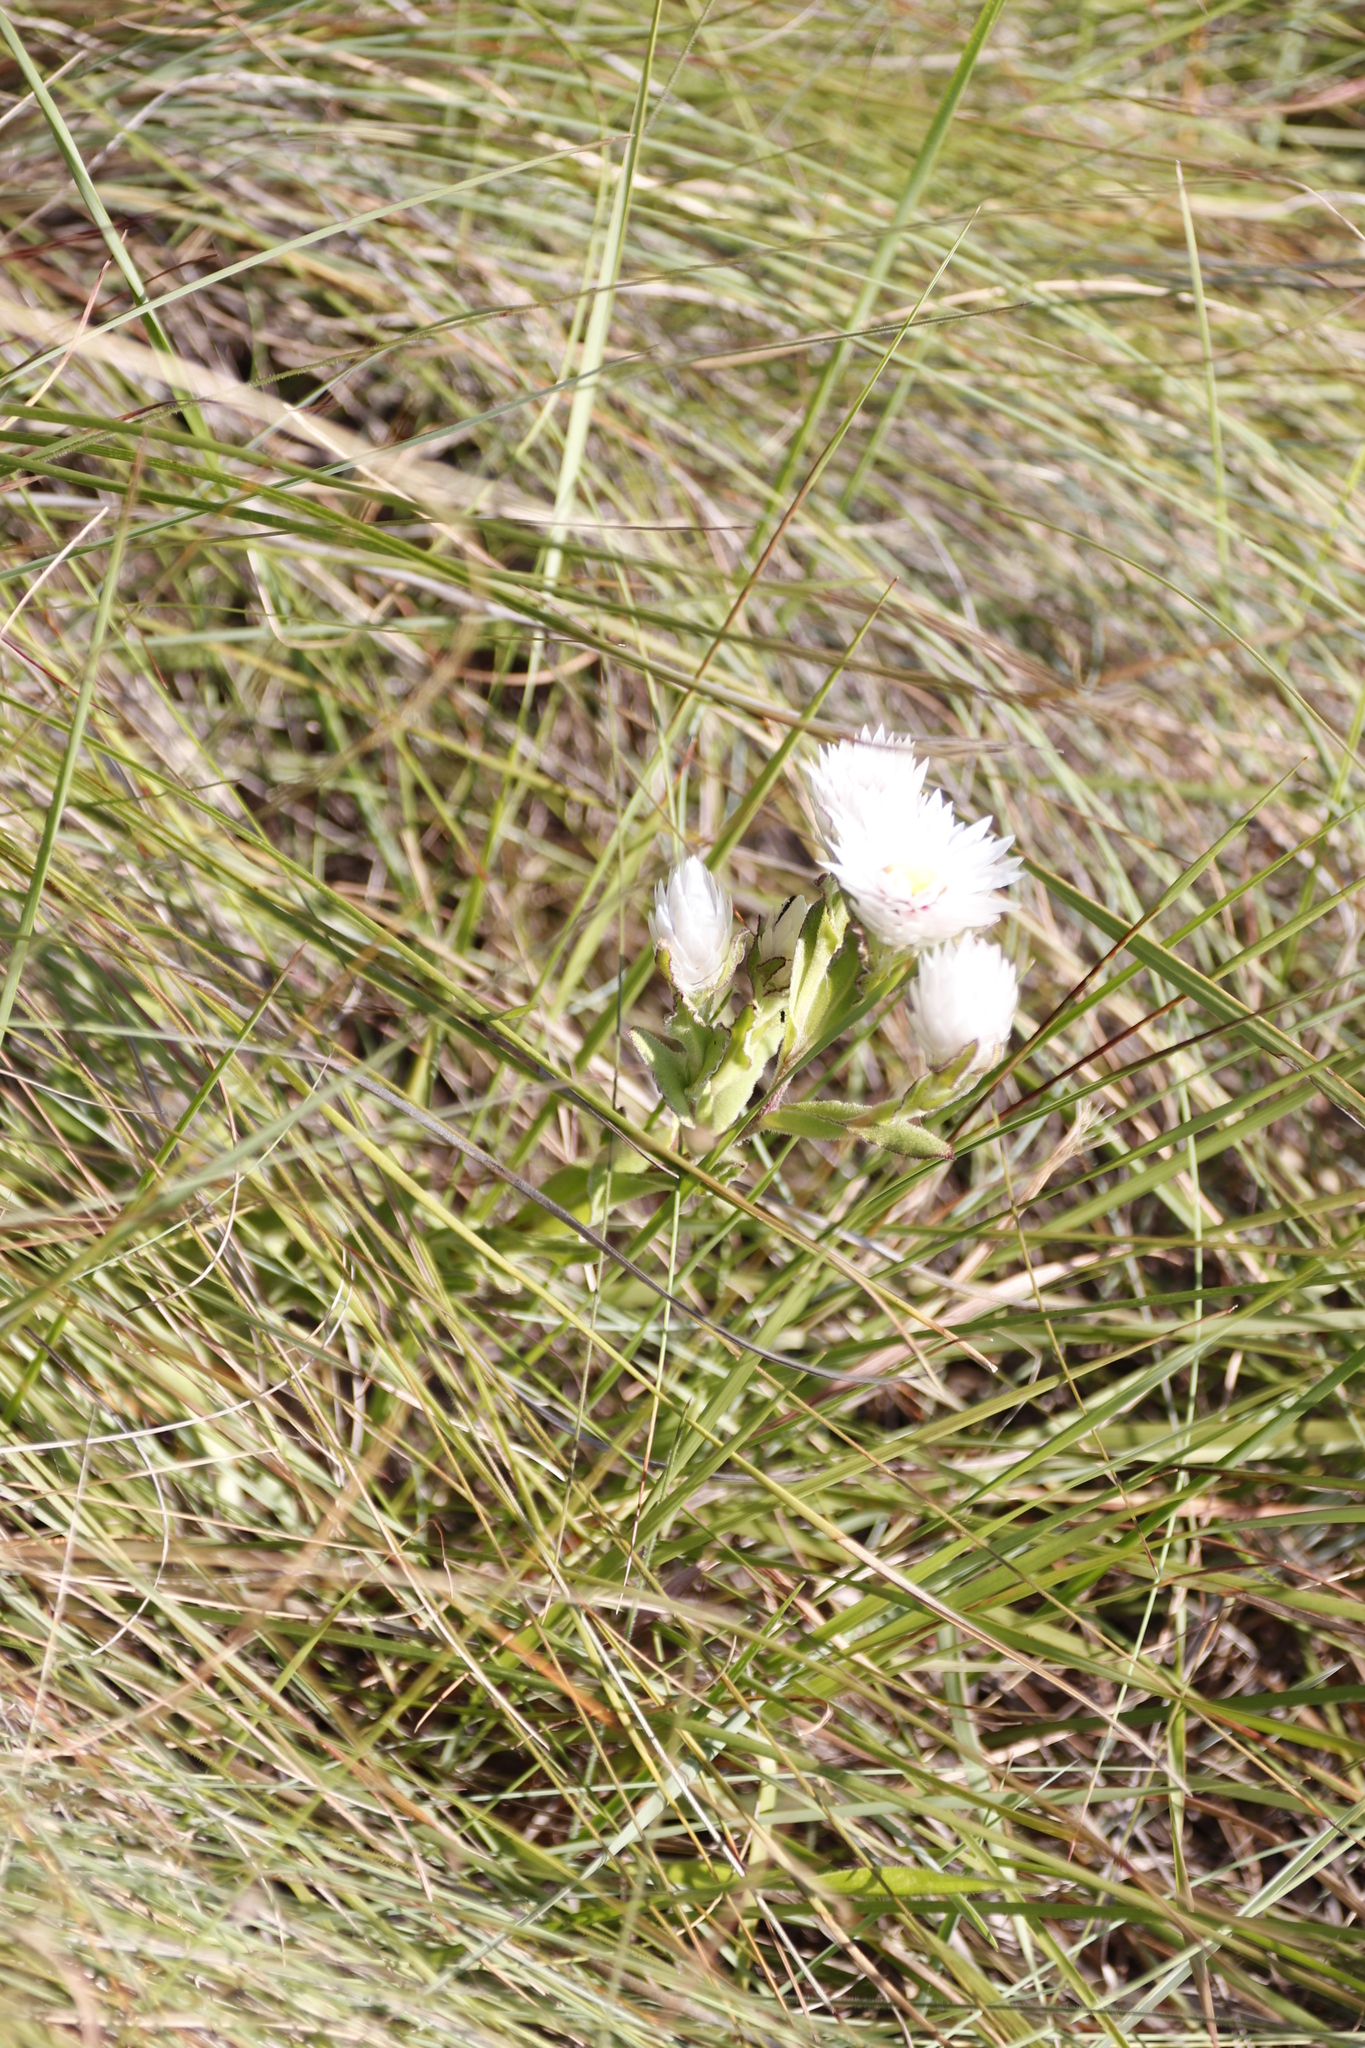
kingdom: Plantae
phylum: Tracheophyta
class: Magnoliopsida
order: Asterales
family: Asteraceae
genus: Helichrysum
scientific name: Helichrysum monticola
